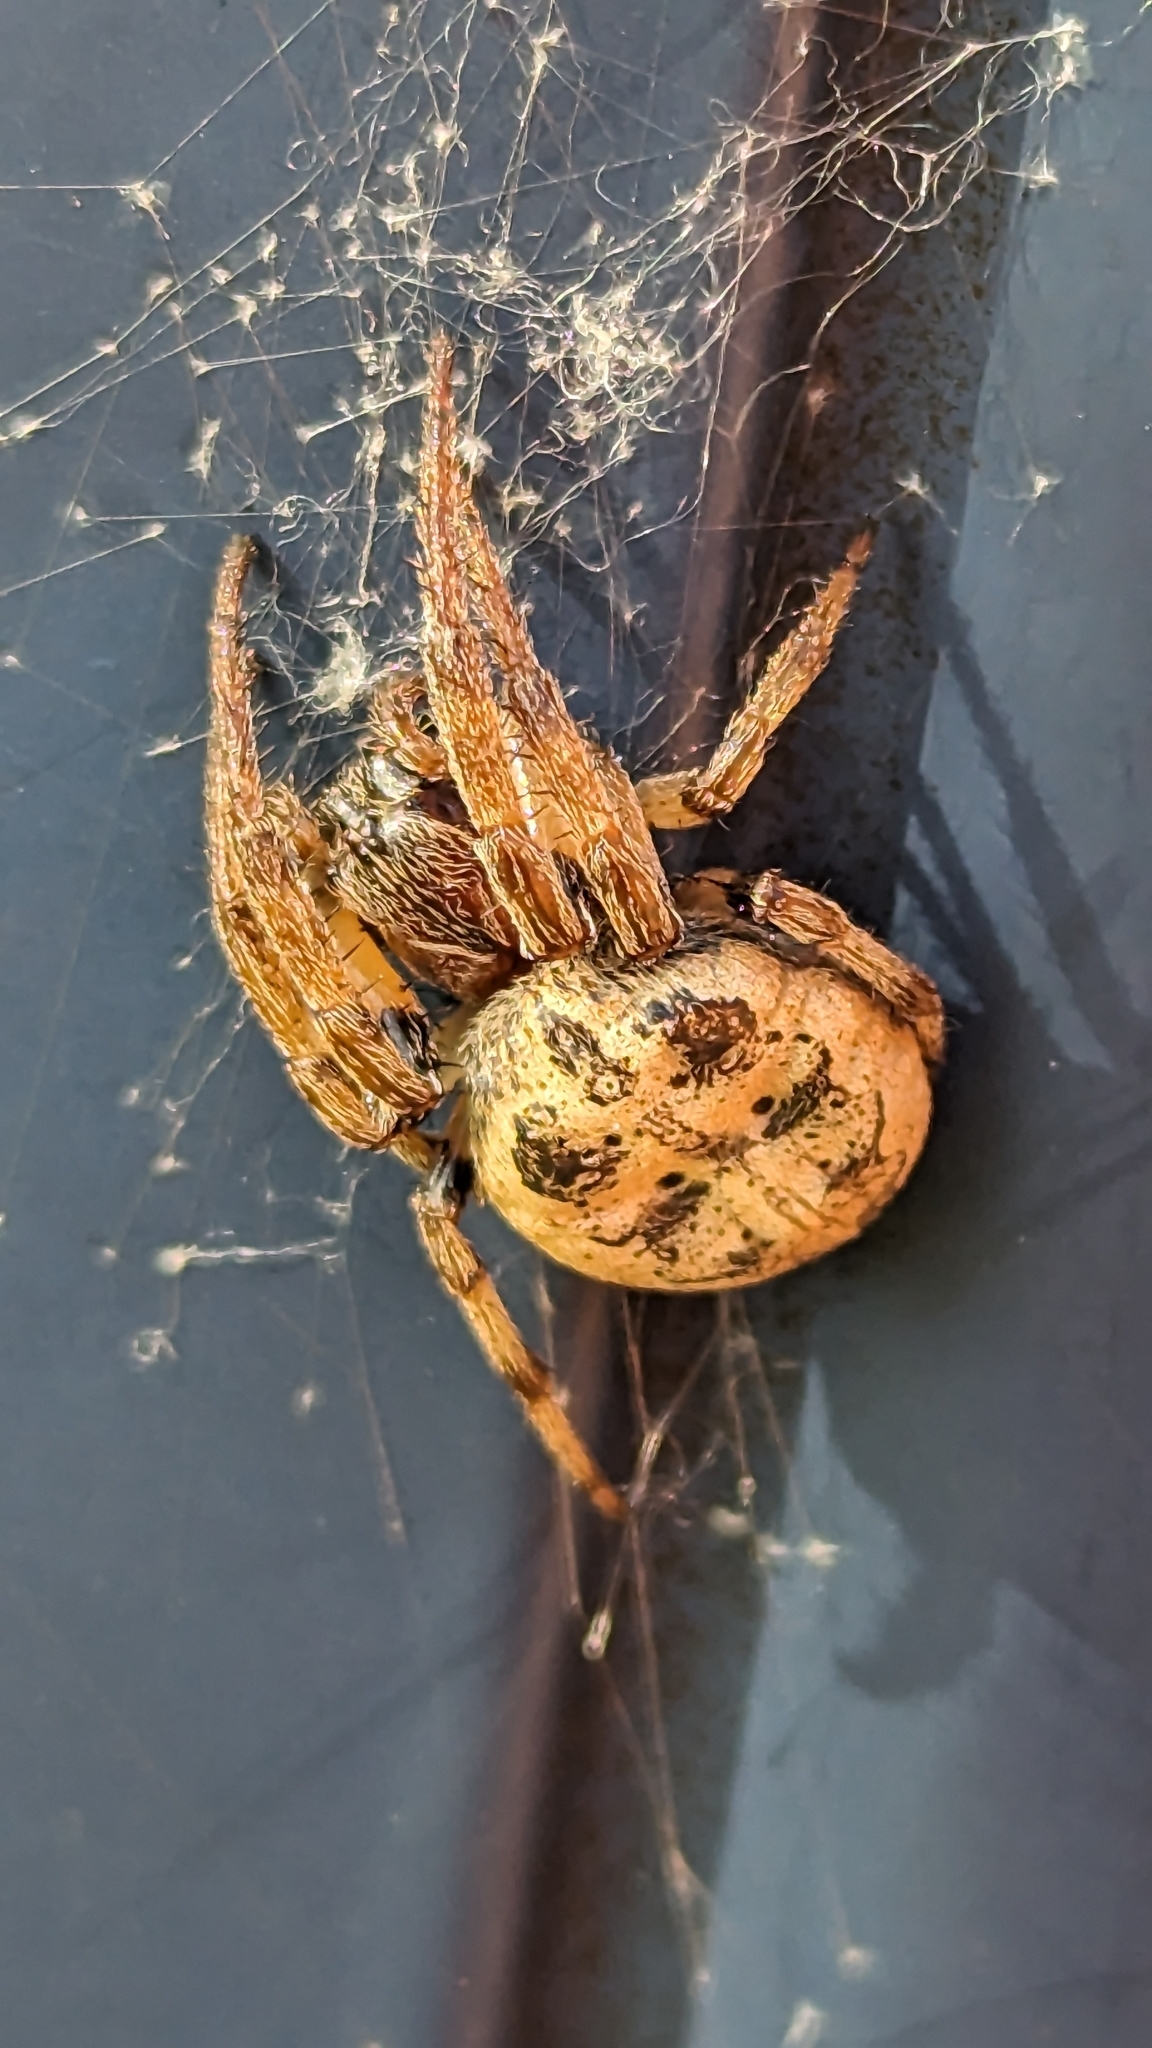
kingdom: Animalia
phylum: Arthropoda
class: Arachnida
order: Araneae
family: Araneidae
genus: Larinioides
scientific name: Larinioides cornutus
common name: Furrow orbweaver
